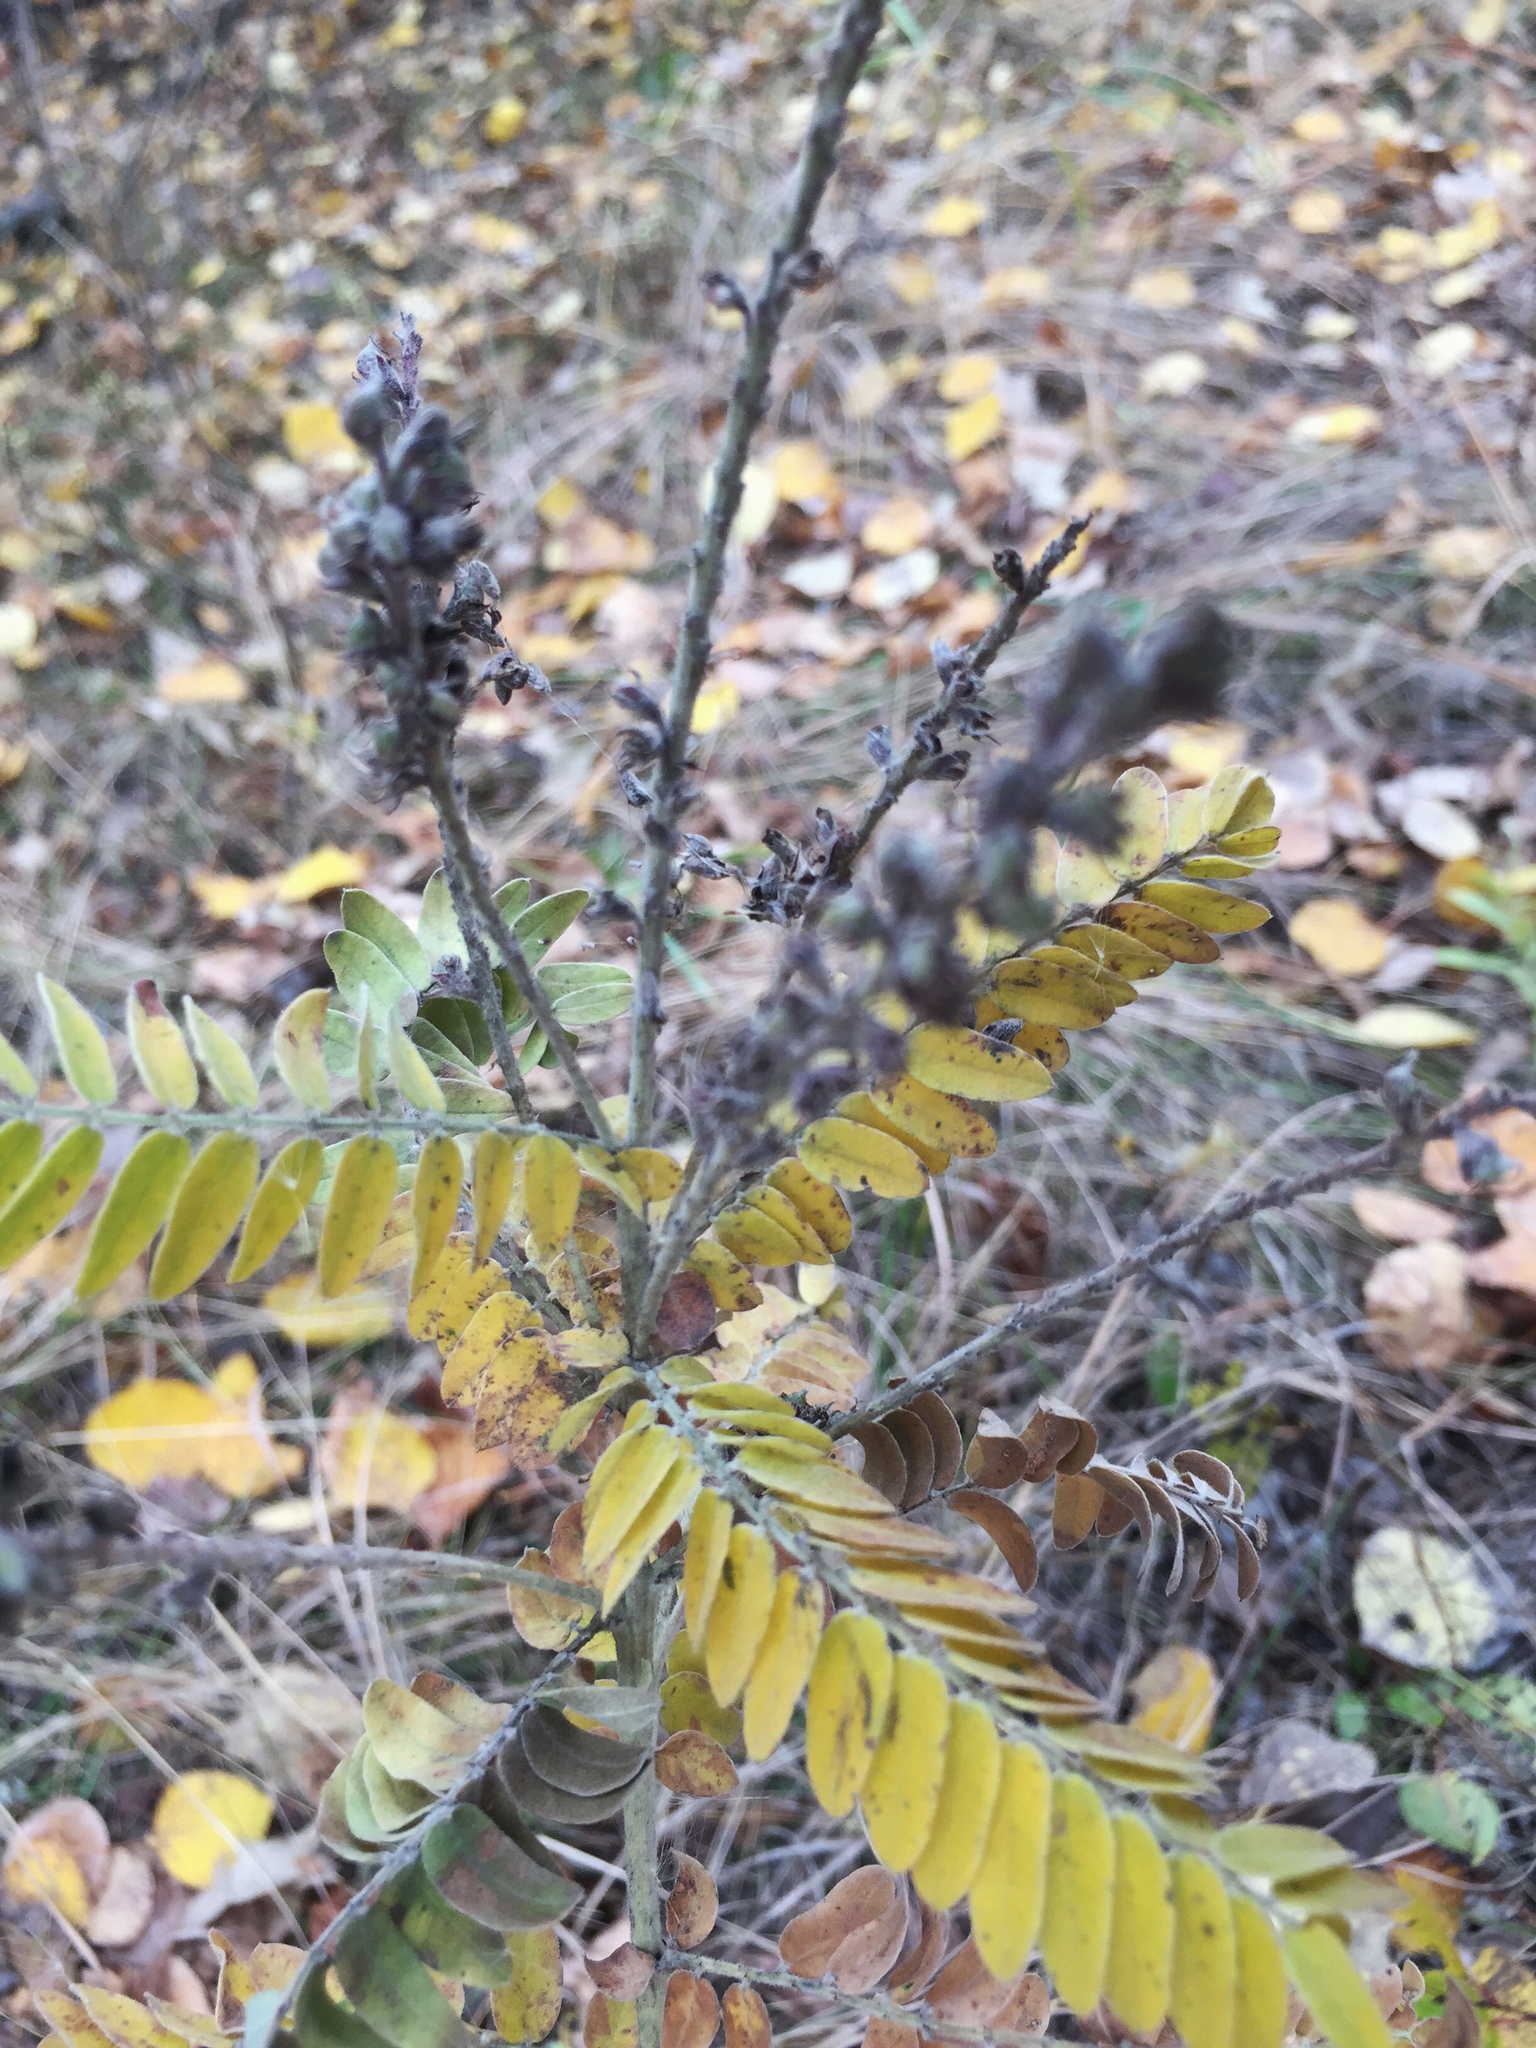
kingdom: Plantae
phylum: Tracheophyta
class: Magnoliopsida
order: Fabales
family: Fabaceae
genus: Amorpha
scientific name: Amorpha canescens
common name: Leadplant
